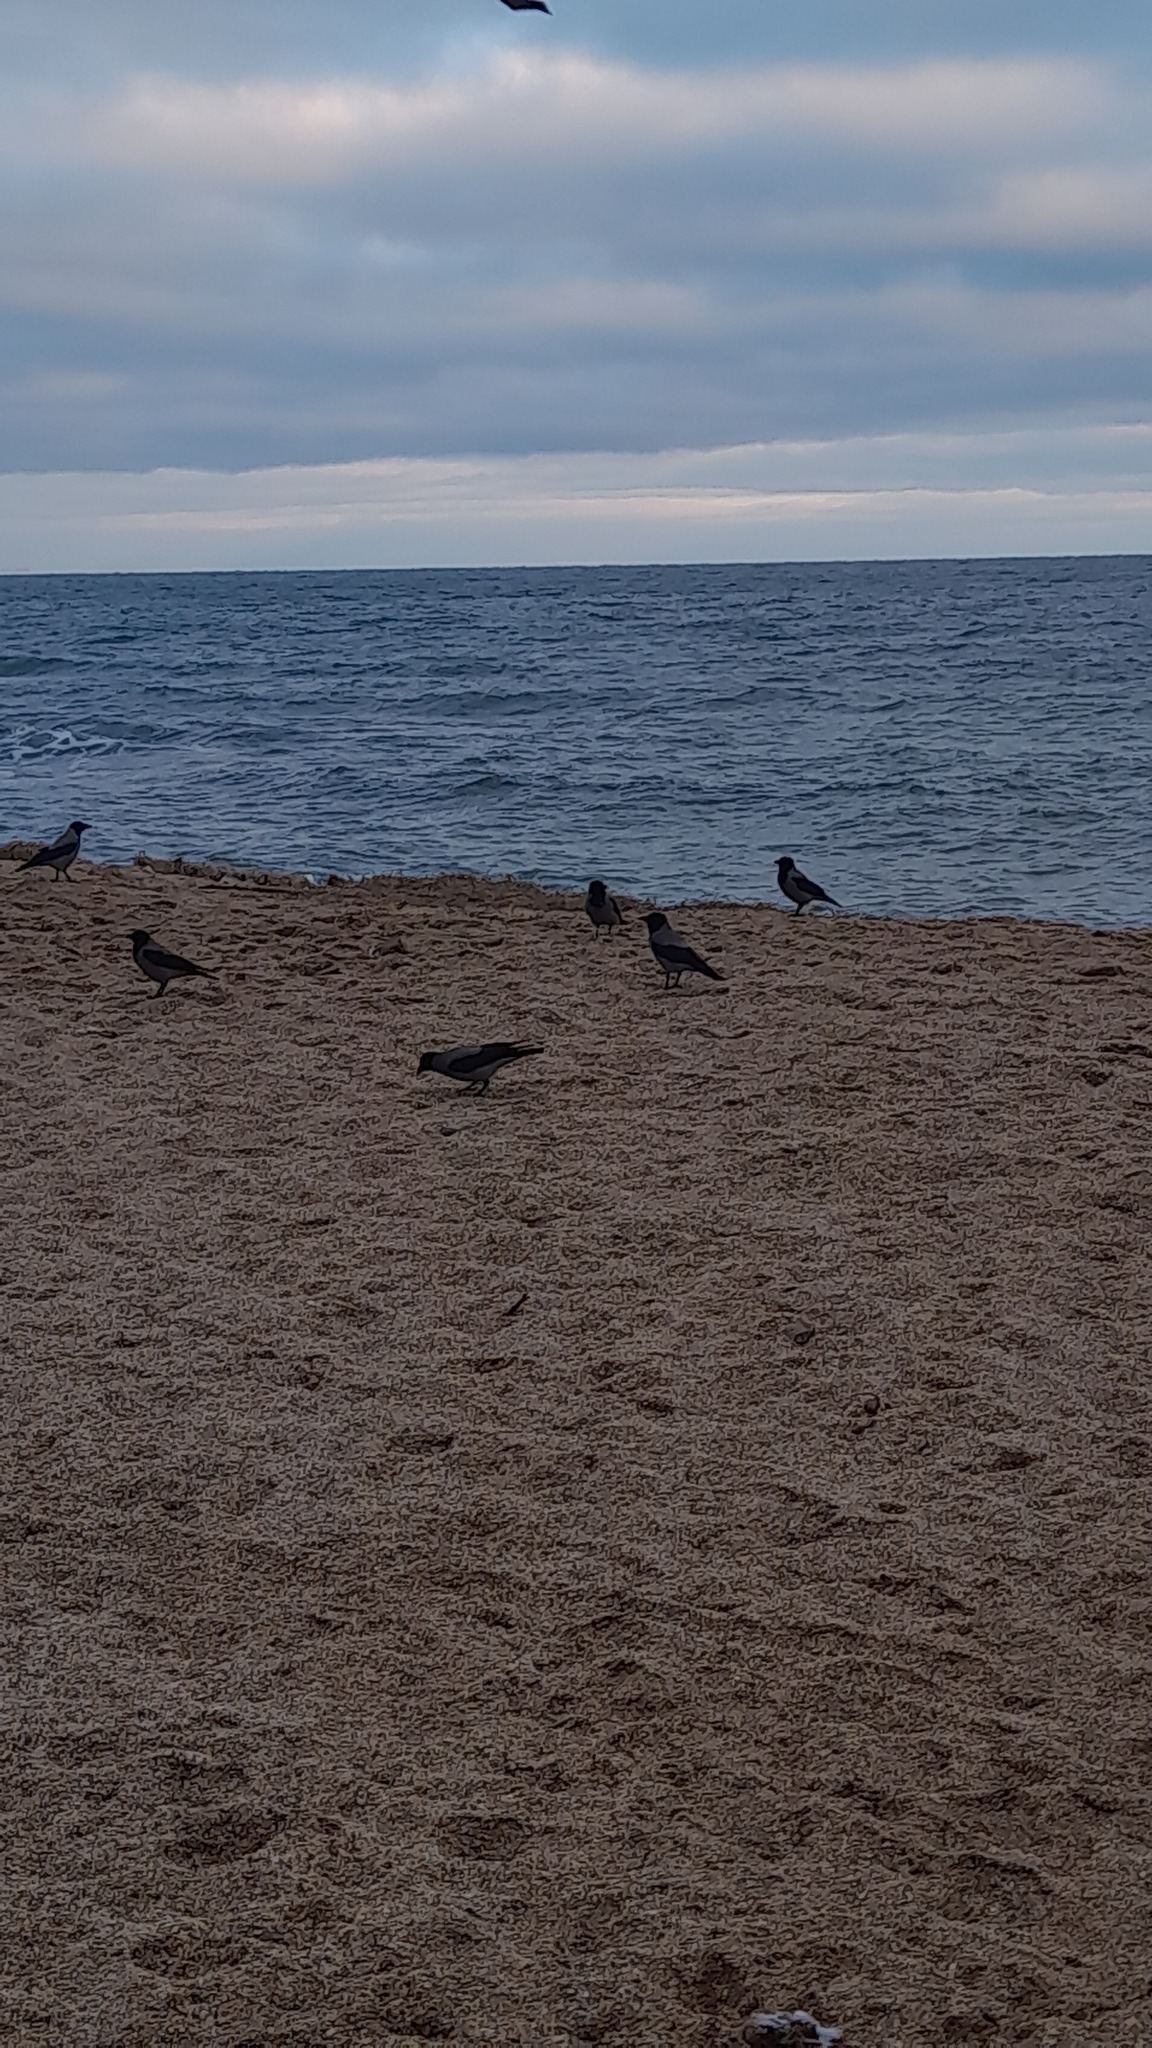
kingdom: Animalia
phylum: Chordata
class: Aves
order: Passeriformes
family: Corvidae
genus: Corvus
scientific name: Corvus cornix
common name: Hooded crow
